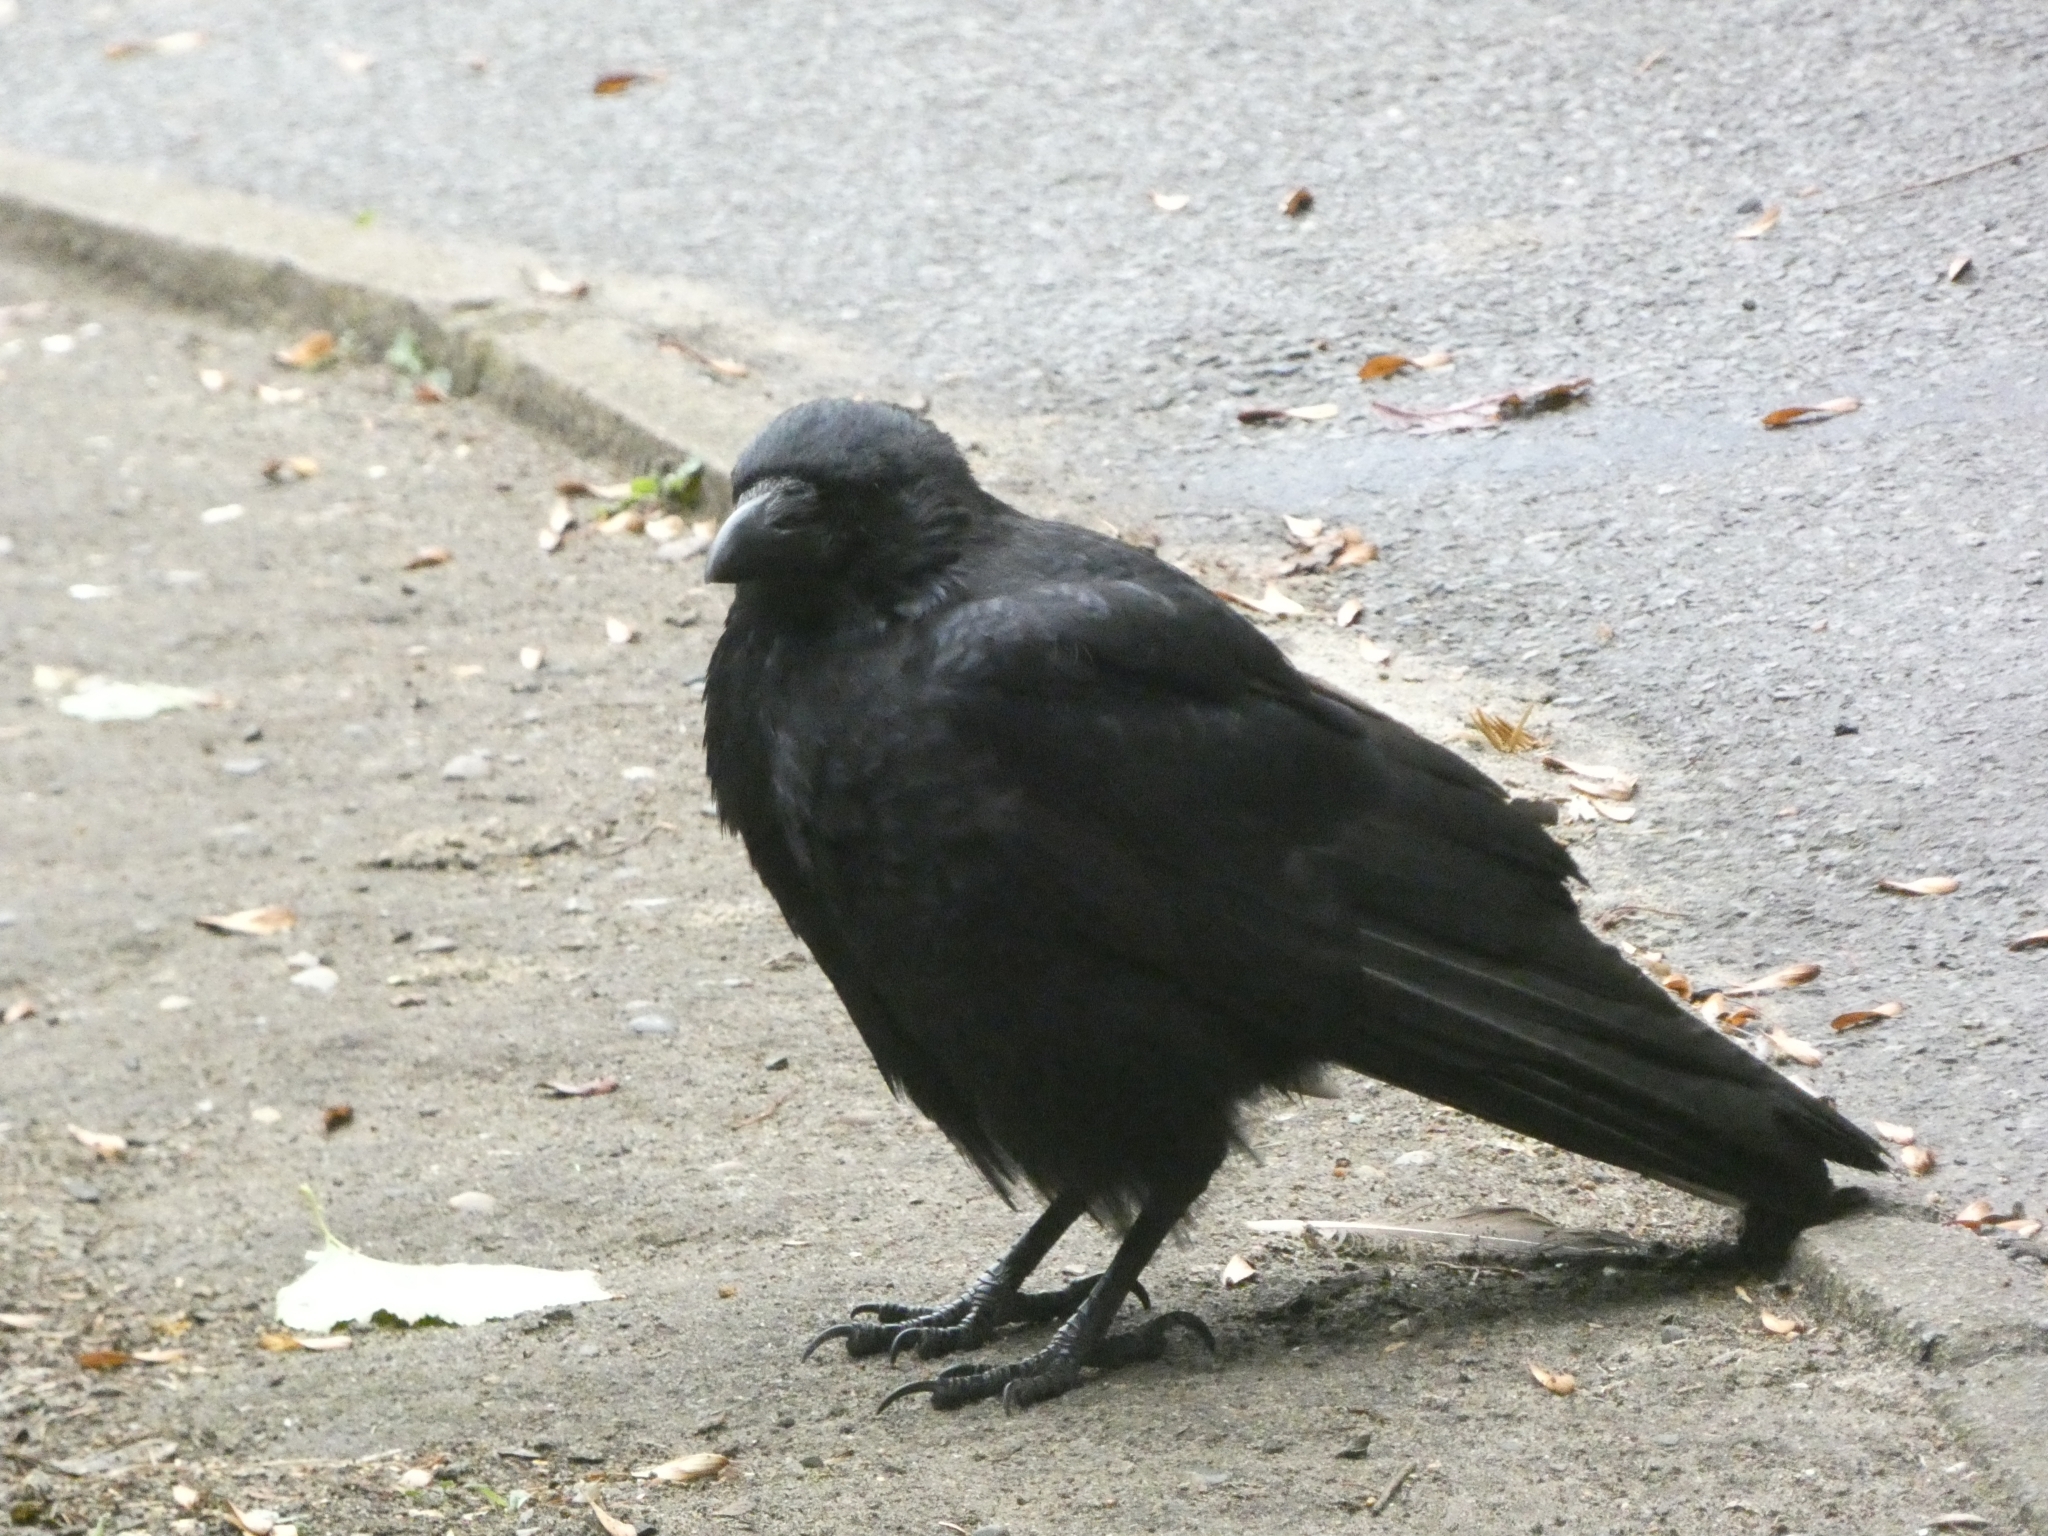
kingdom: Animalia
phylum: Chordata
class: Aves
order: Passeriformes
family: Corvidae
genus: Corvus
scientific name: Corvus corone
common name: Carrion crow
